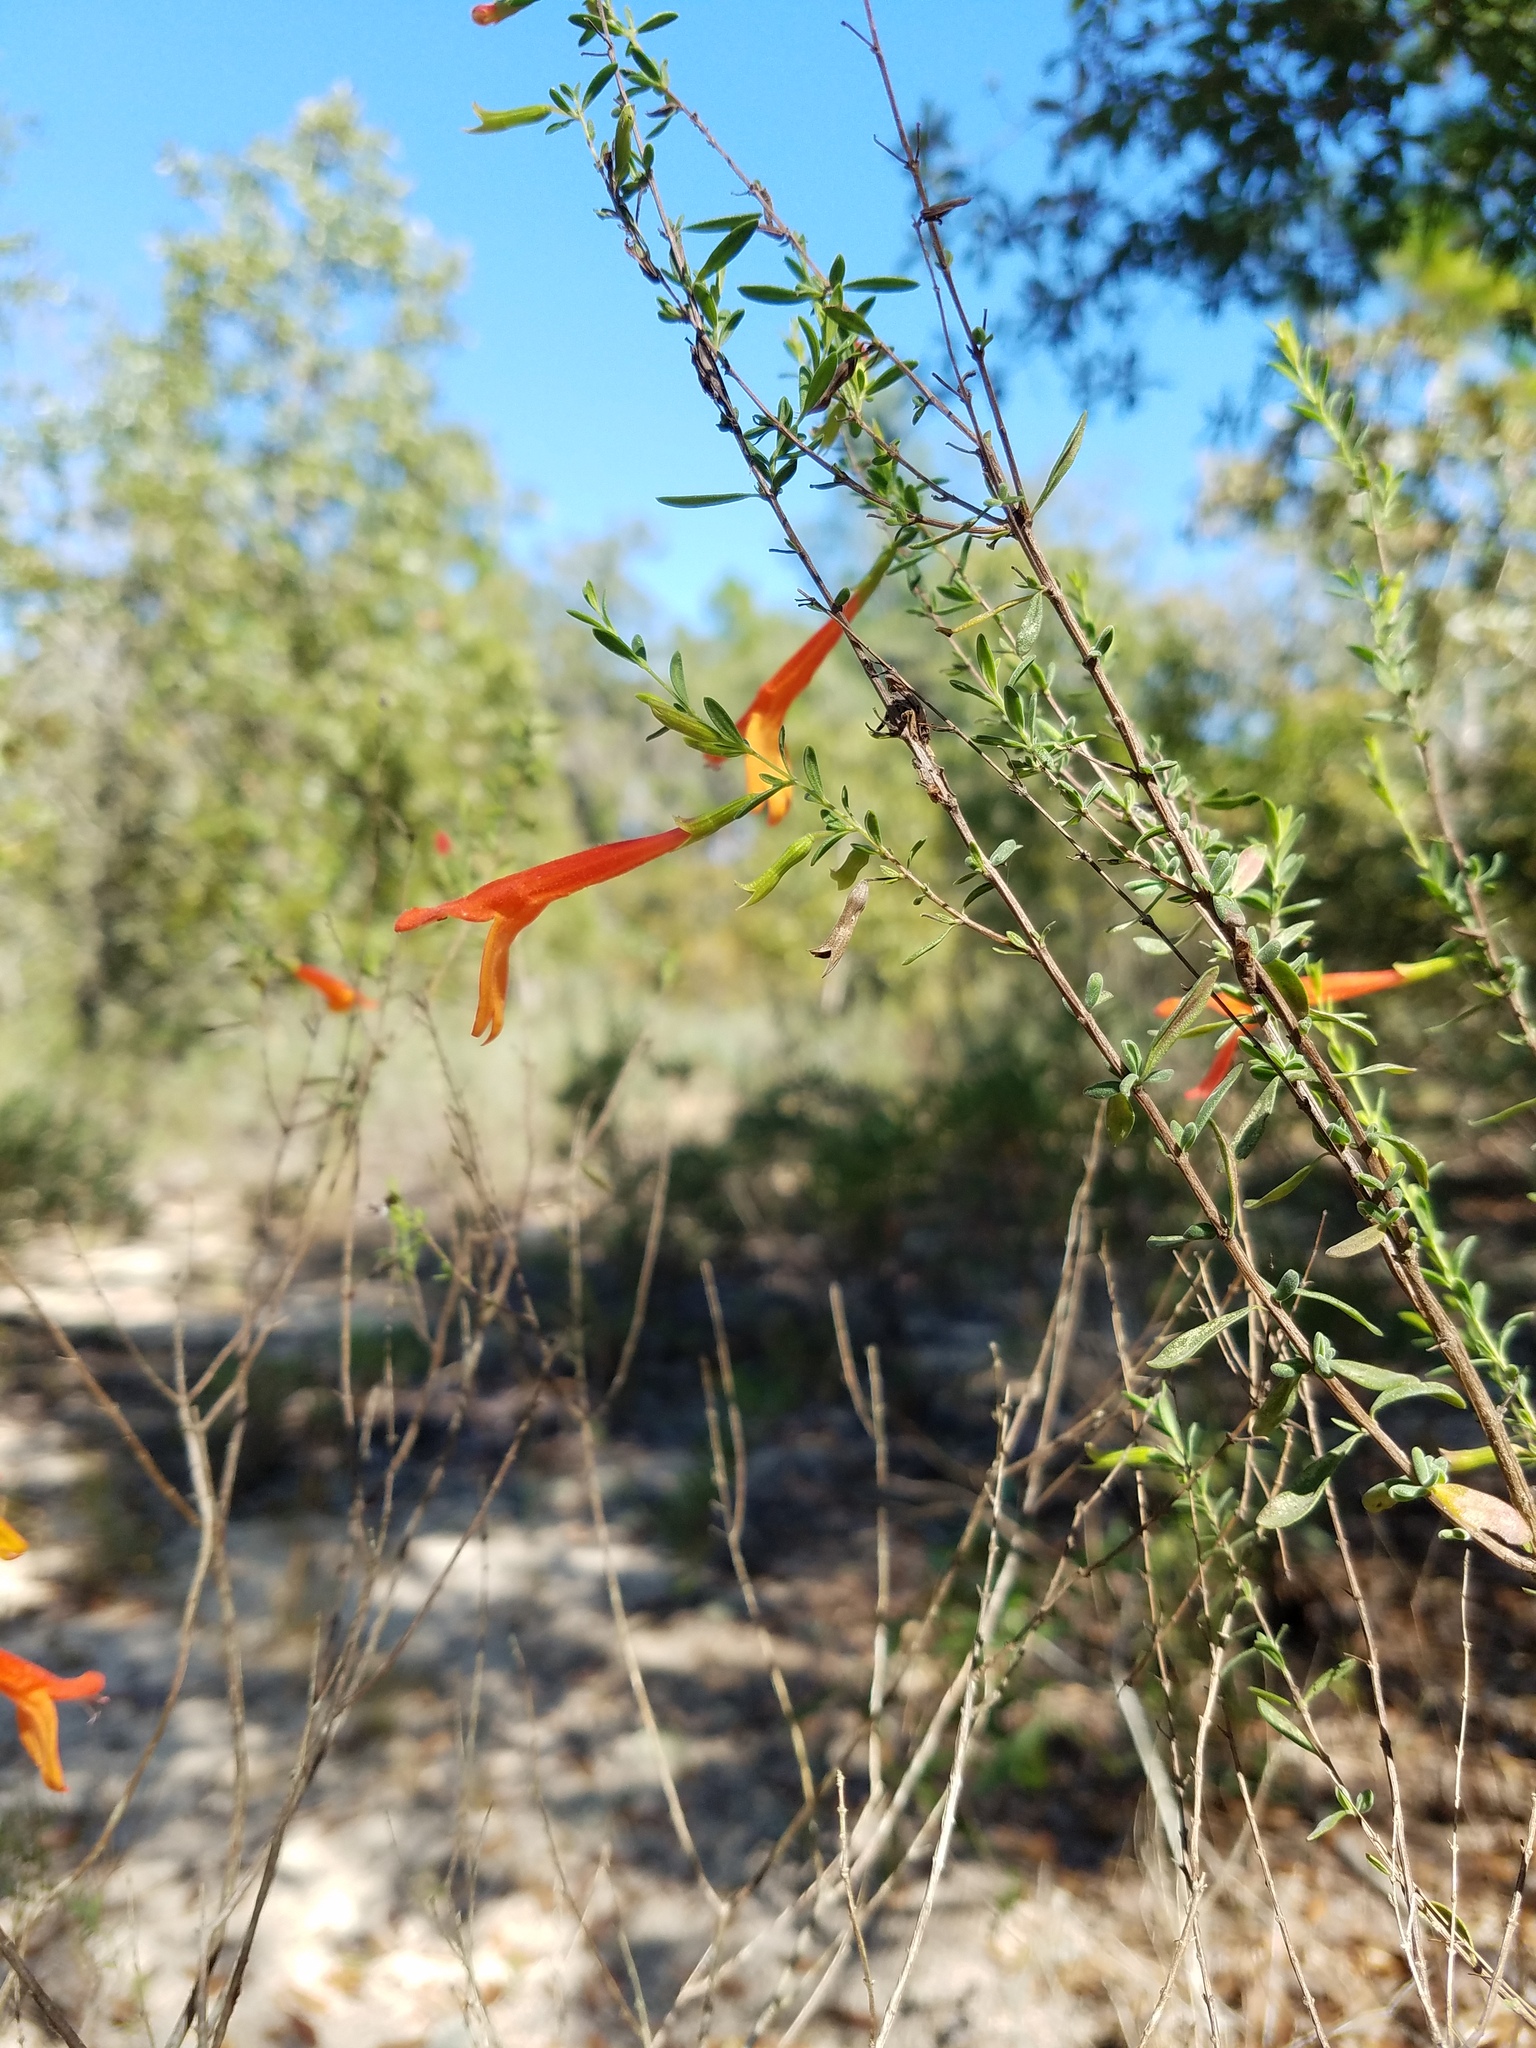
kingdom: Plantae
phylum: Tracheophyta
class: Magnoliopsida
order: Lamiales
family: Lamiaceae
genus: Clinopodium
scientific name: Clinopodium coccineum
